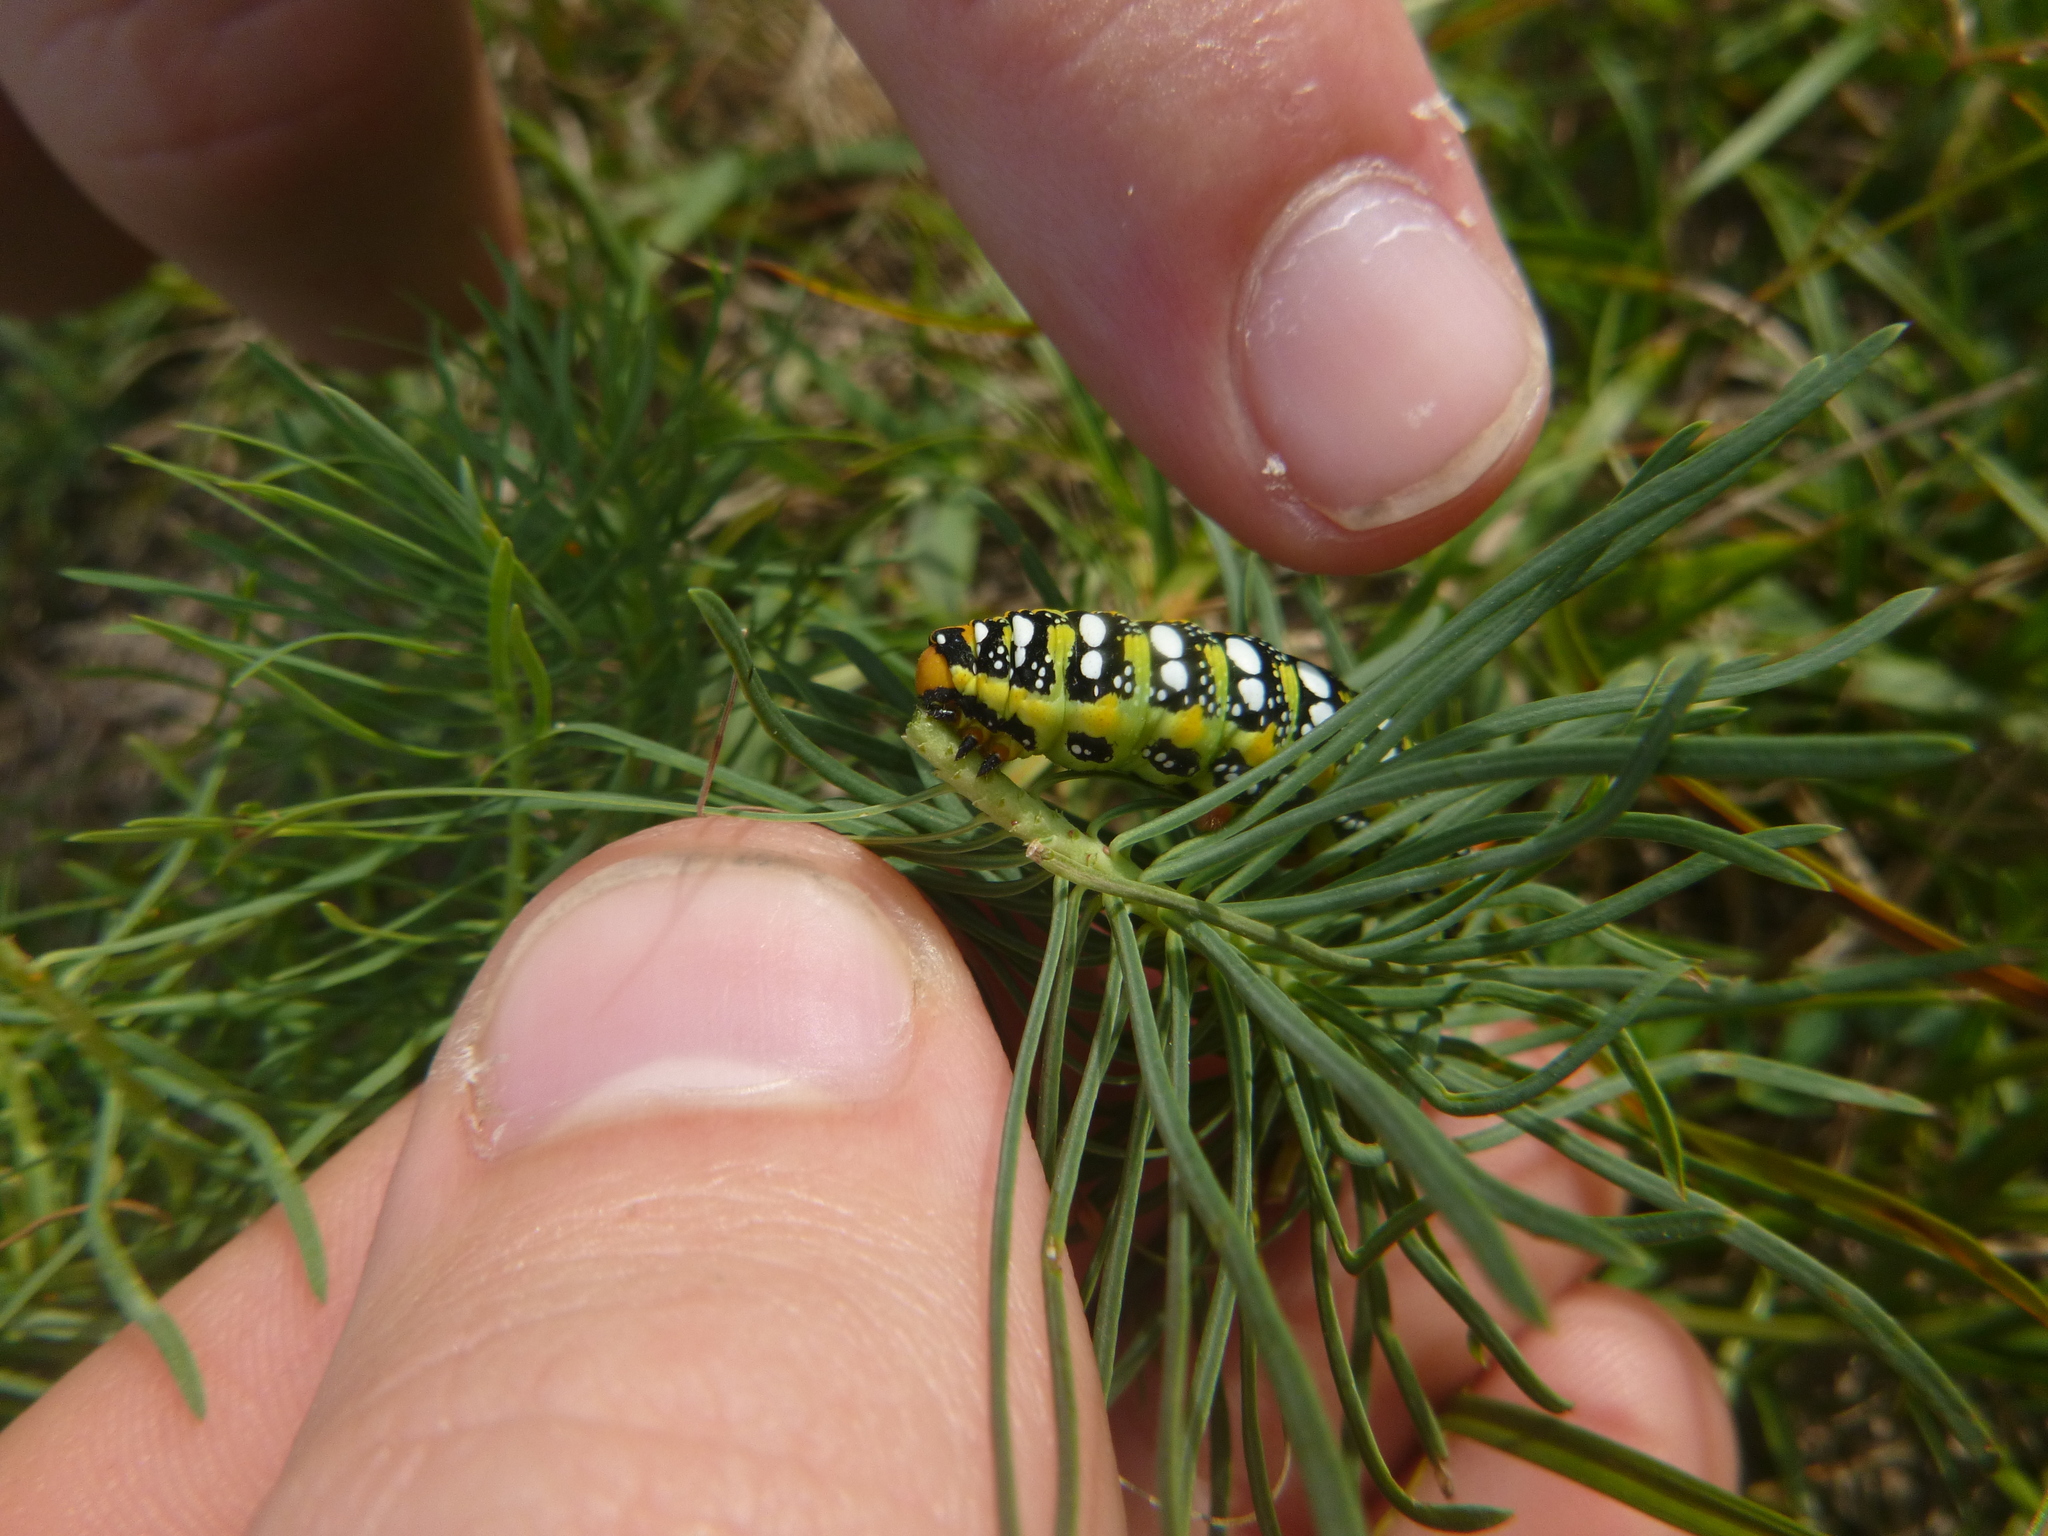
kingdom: Animalia
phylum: Arthropoda
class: Insecta
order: Lepidoptera
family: Sphingidae
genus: Hyles
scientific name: Hyles euphorbiae
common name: Spurge hawk-moth
